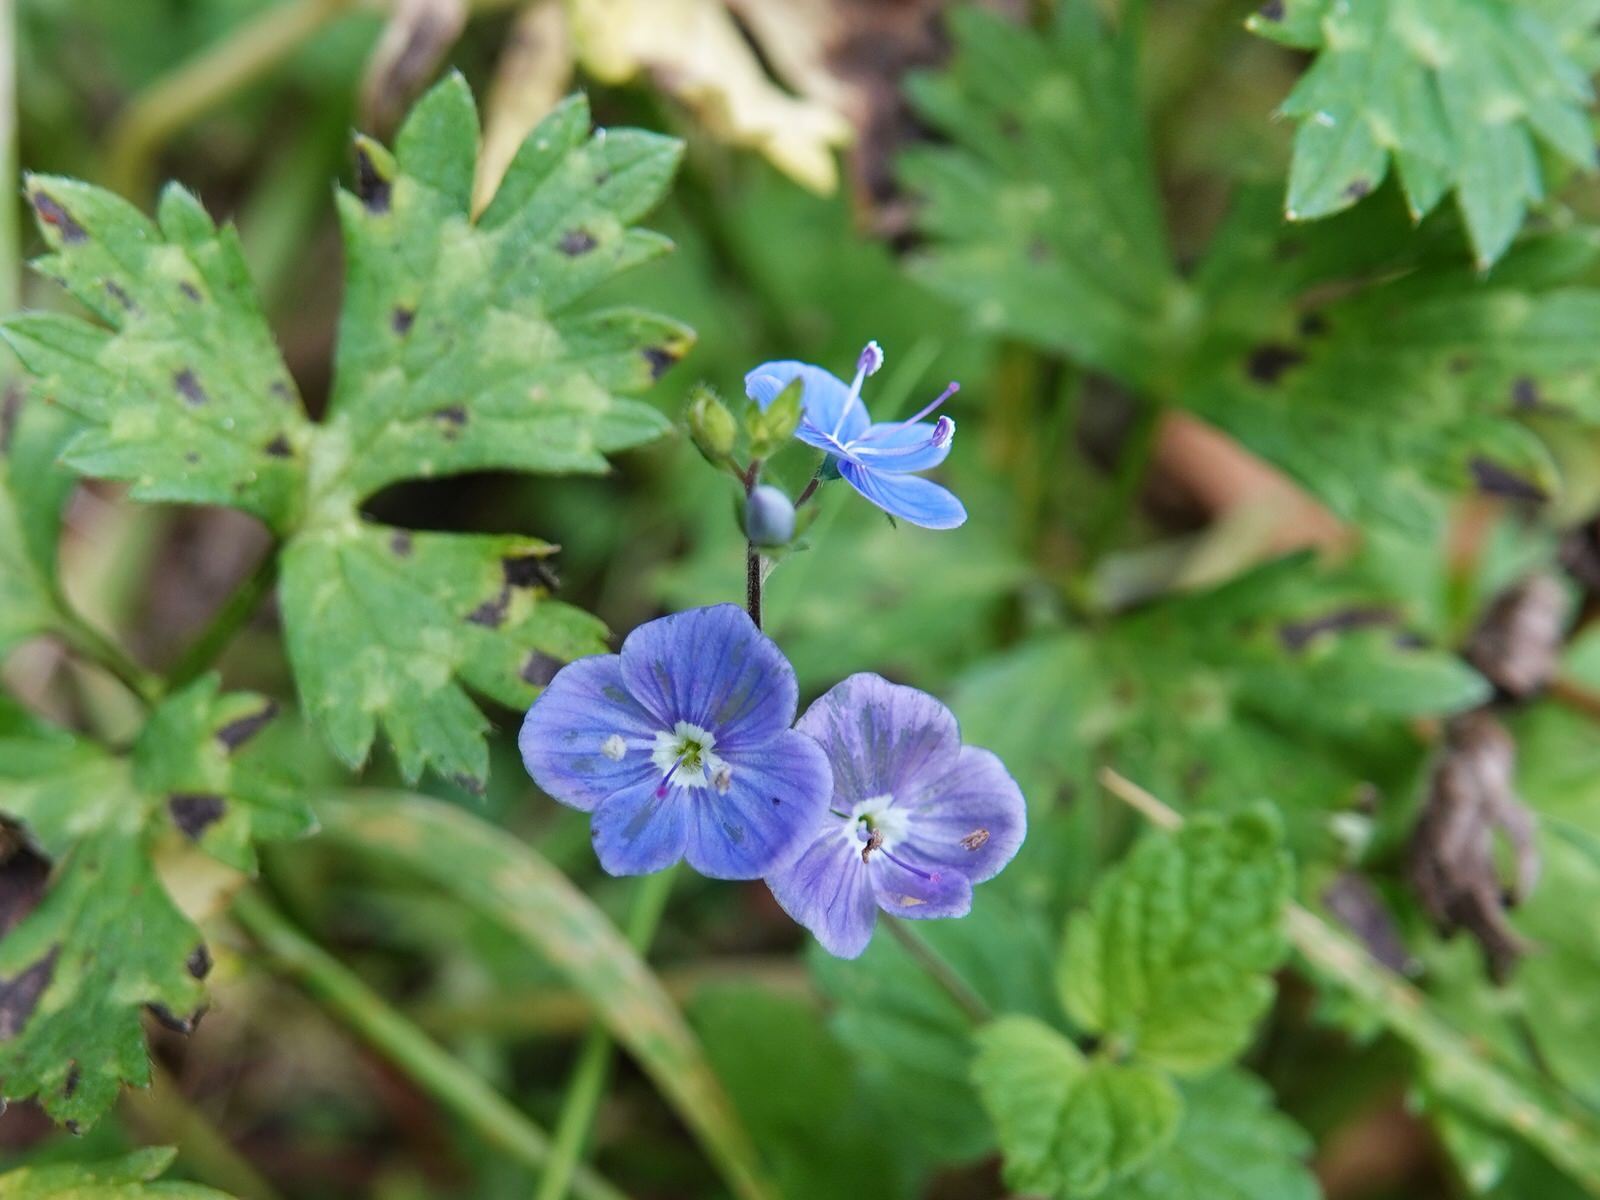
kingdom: Plantae
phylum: Tracheophyta
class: Magnoliopsida
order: Lamiales
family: Plantaginaceae
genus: Veronica
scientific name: Veronica chamaedrys
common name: Germander speedwell
